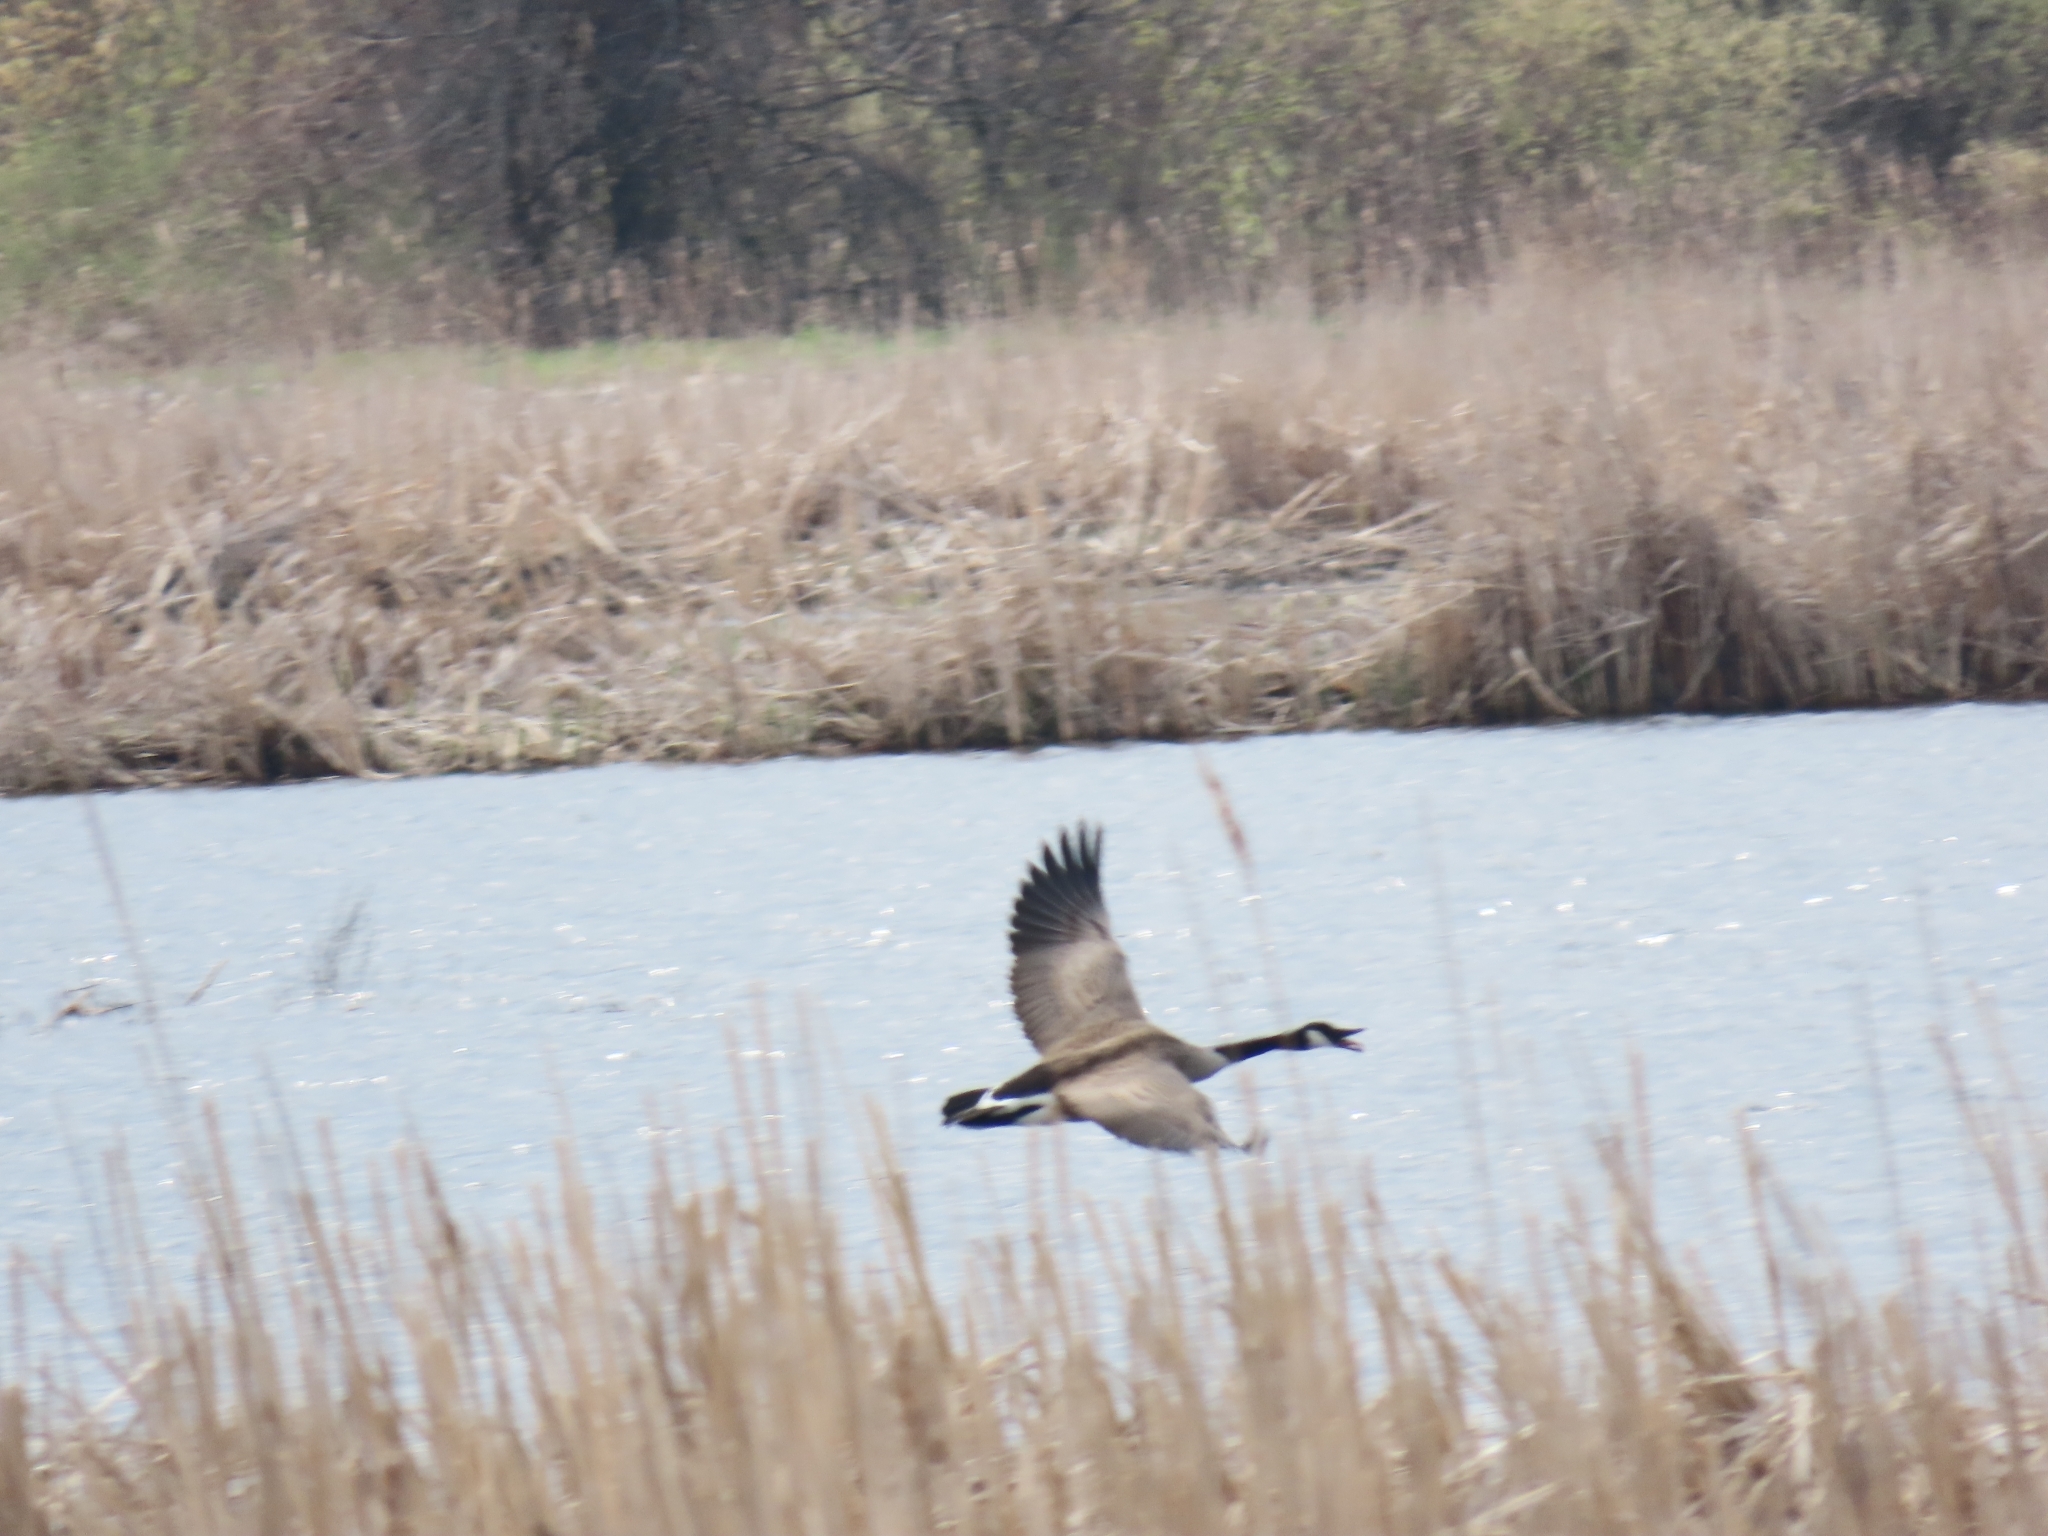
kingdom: Animalia
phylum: Chordata
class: Aves
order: Anseriformes
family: Anatidae
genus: Branta
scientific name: Branta canadensis
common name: Canada goose
